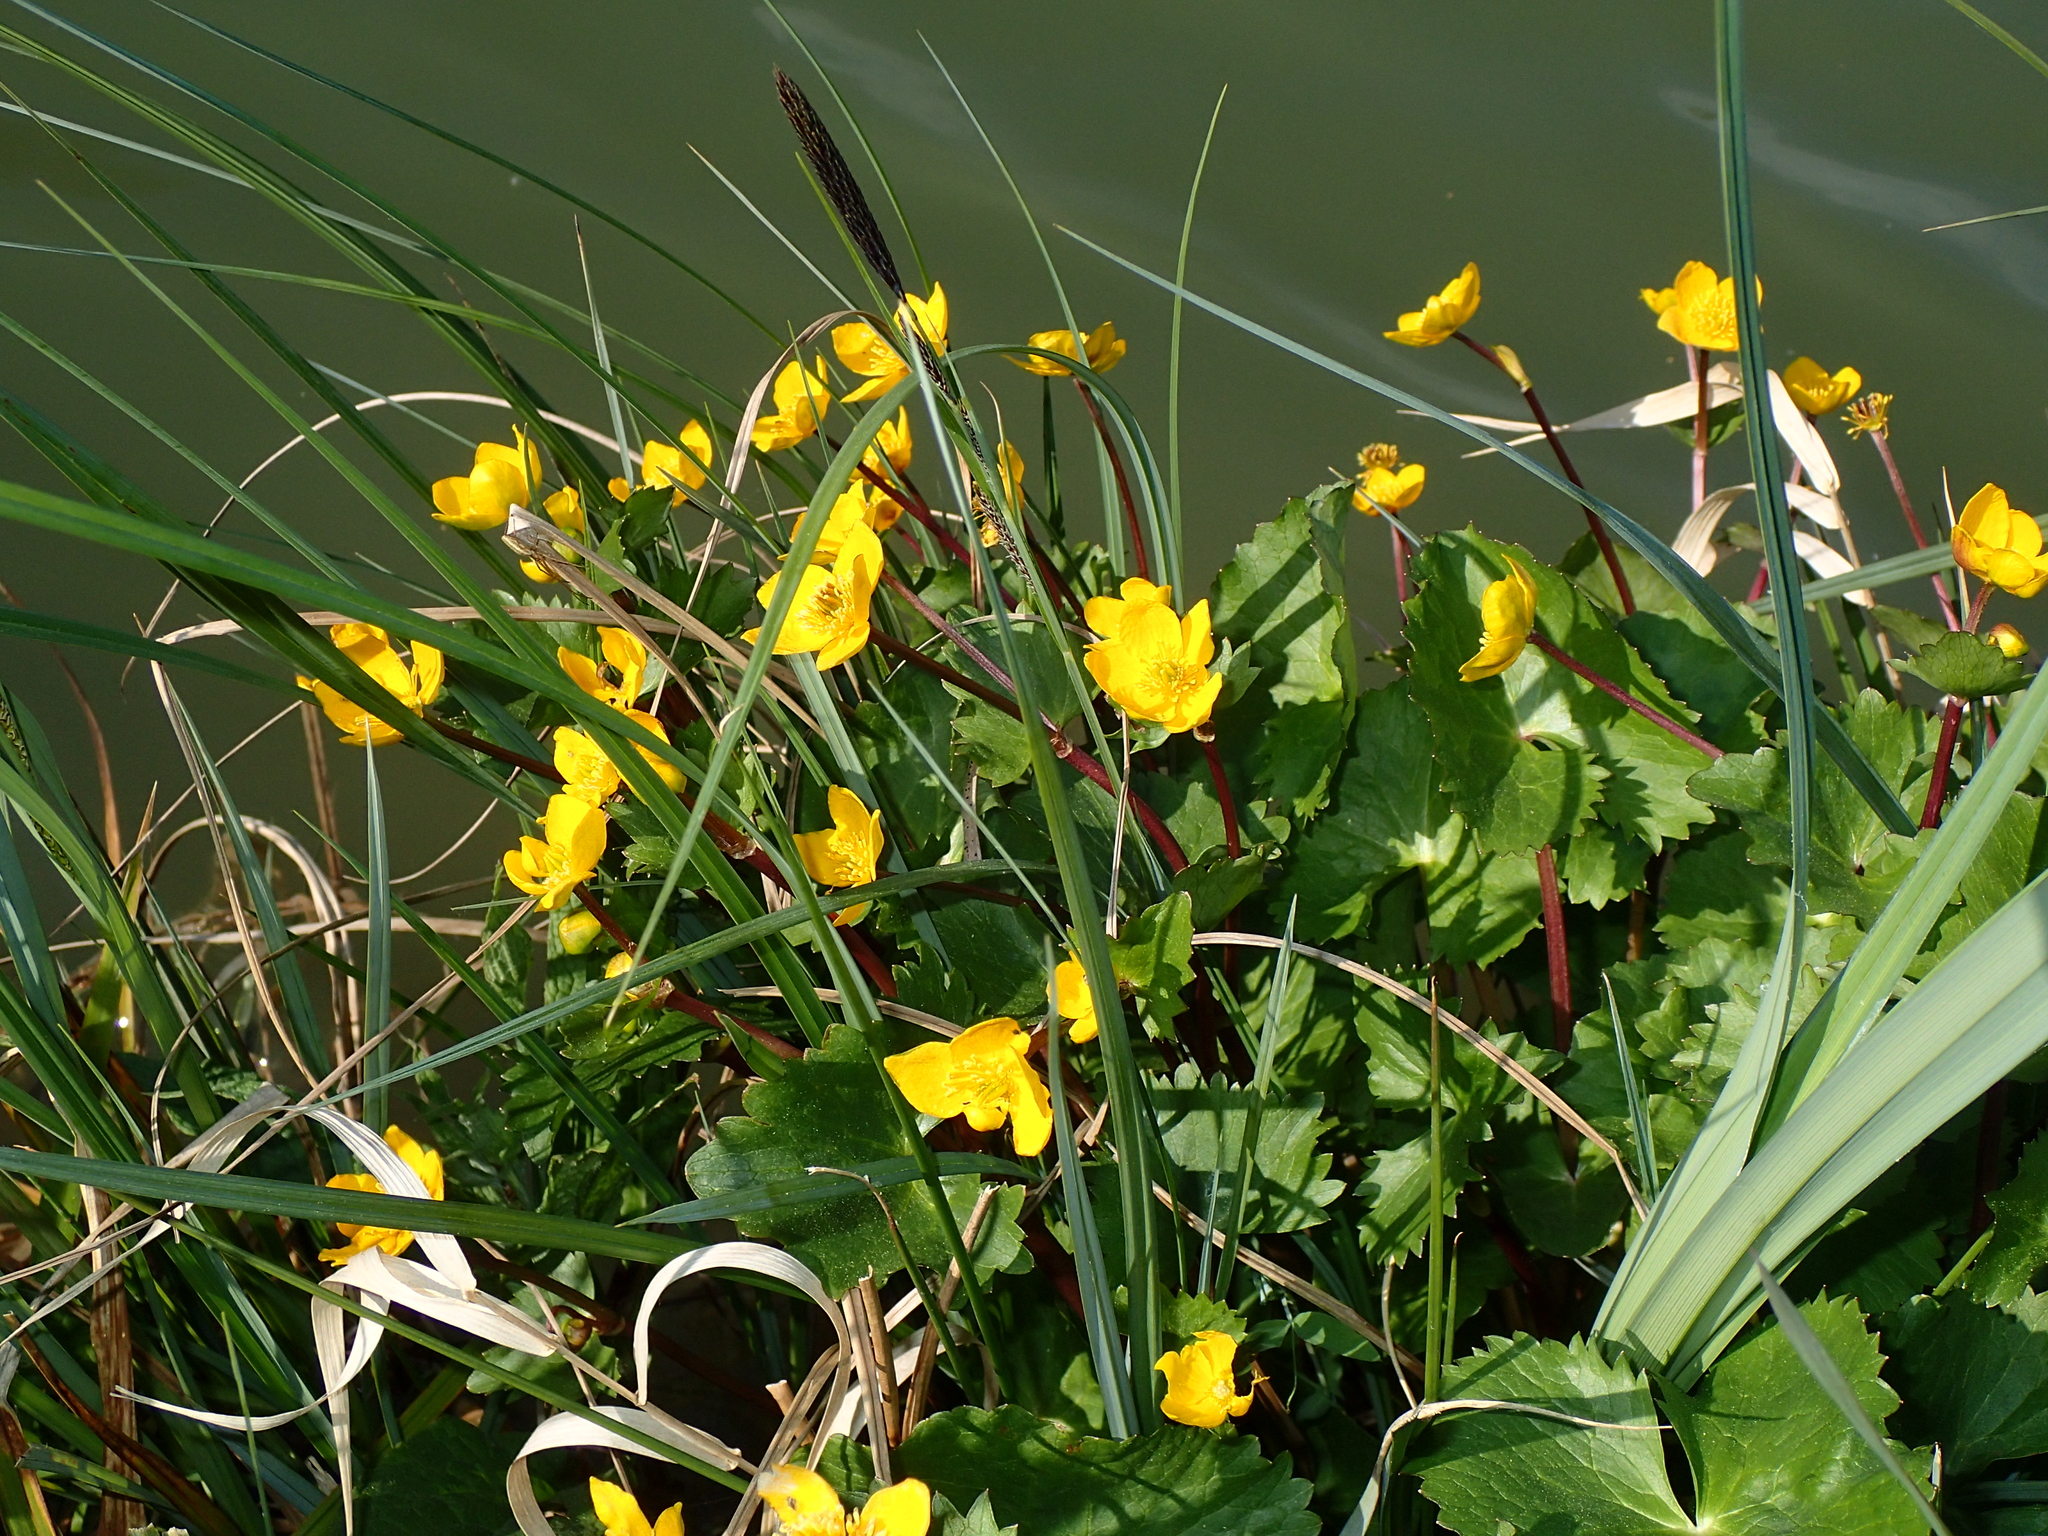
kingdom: Plantae
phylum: Tracheophyta
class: Magnoliopsida
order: Ranunculales
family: Ranunculaceae
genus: Caltha
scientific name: Caltha palustris
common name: Marsh marigold
